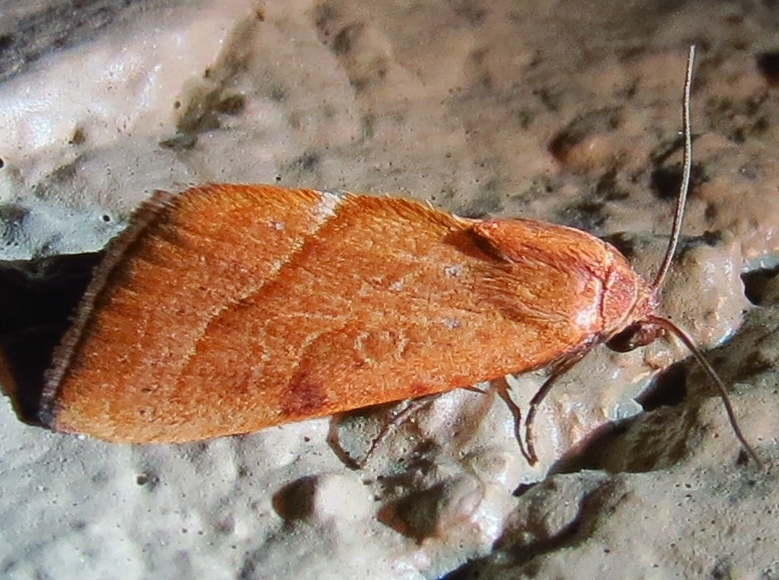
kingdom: Animalia
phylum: Arthropoda
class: Insecta
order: Lepidoptera
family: Noctuidae
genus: Galgula
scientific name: Galgula partita
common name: Wedgeling
